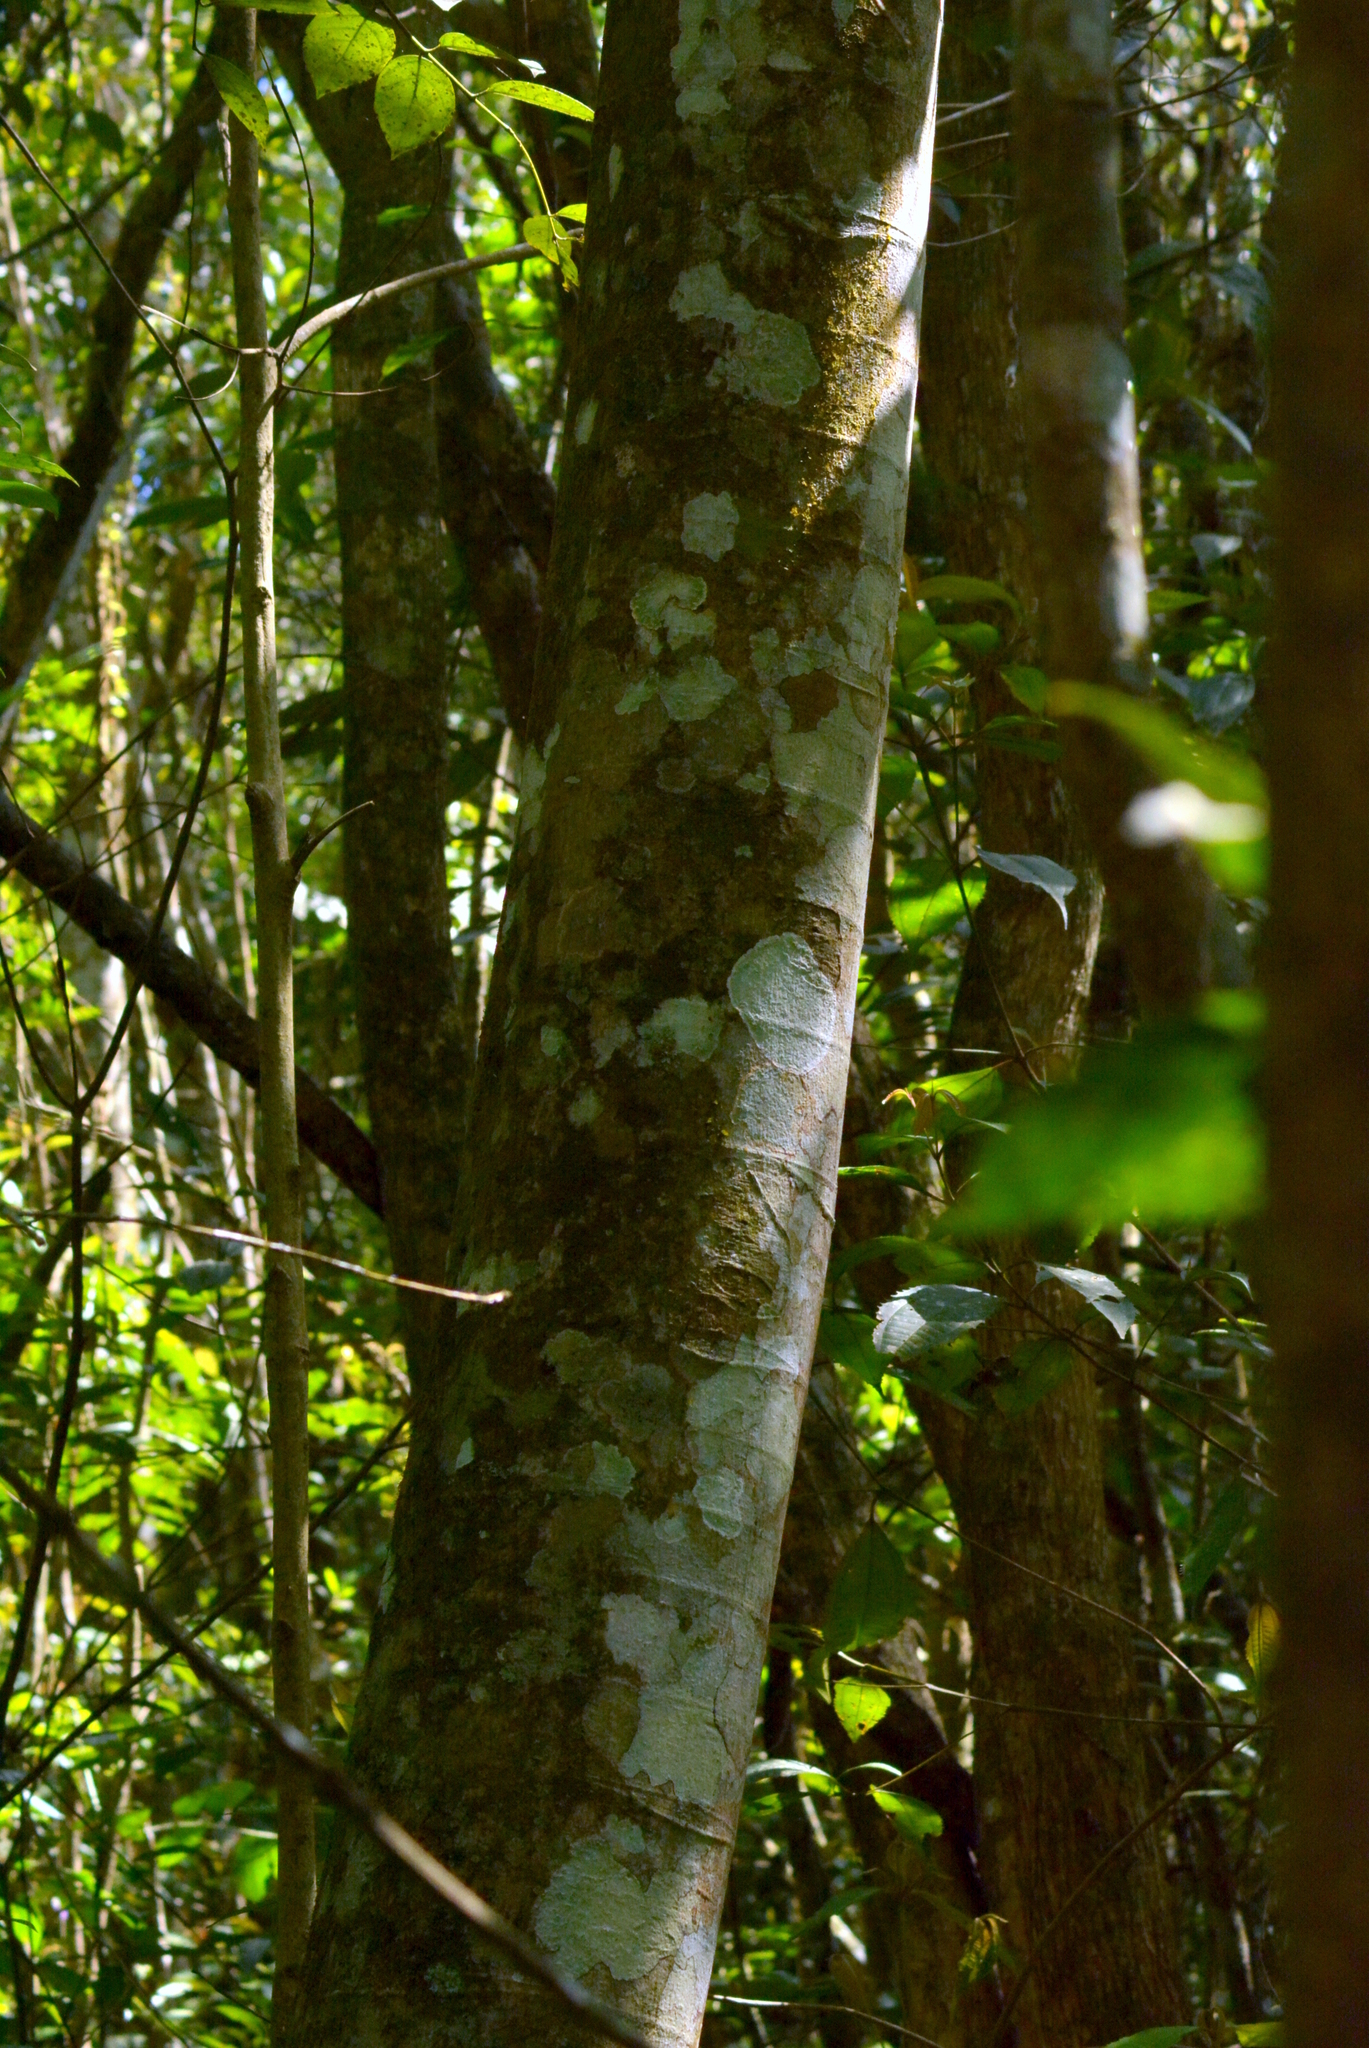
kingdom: Plantae
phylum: Tracheophyta
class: Magnoliopsida
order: Rosales
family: Urticaceae
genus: Cecropia
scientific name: Cecropia glaziovii
